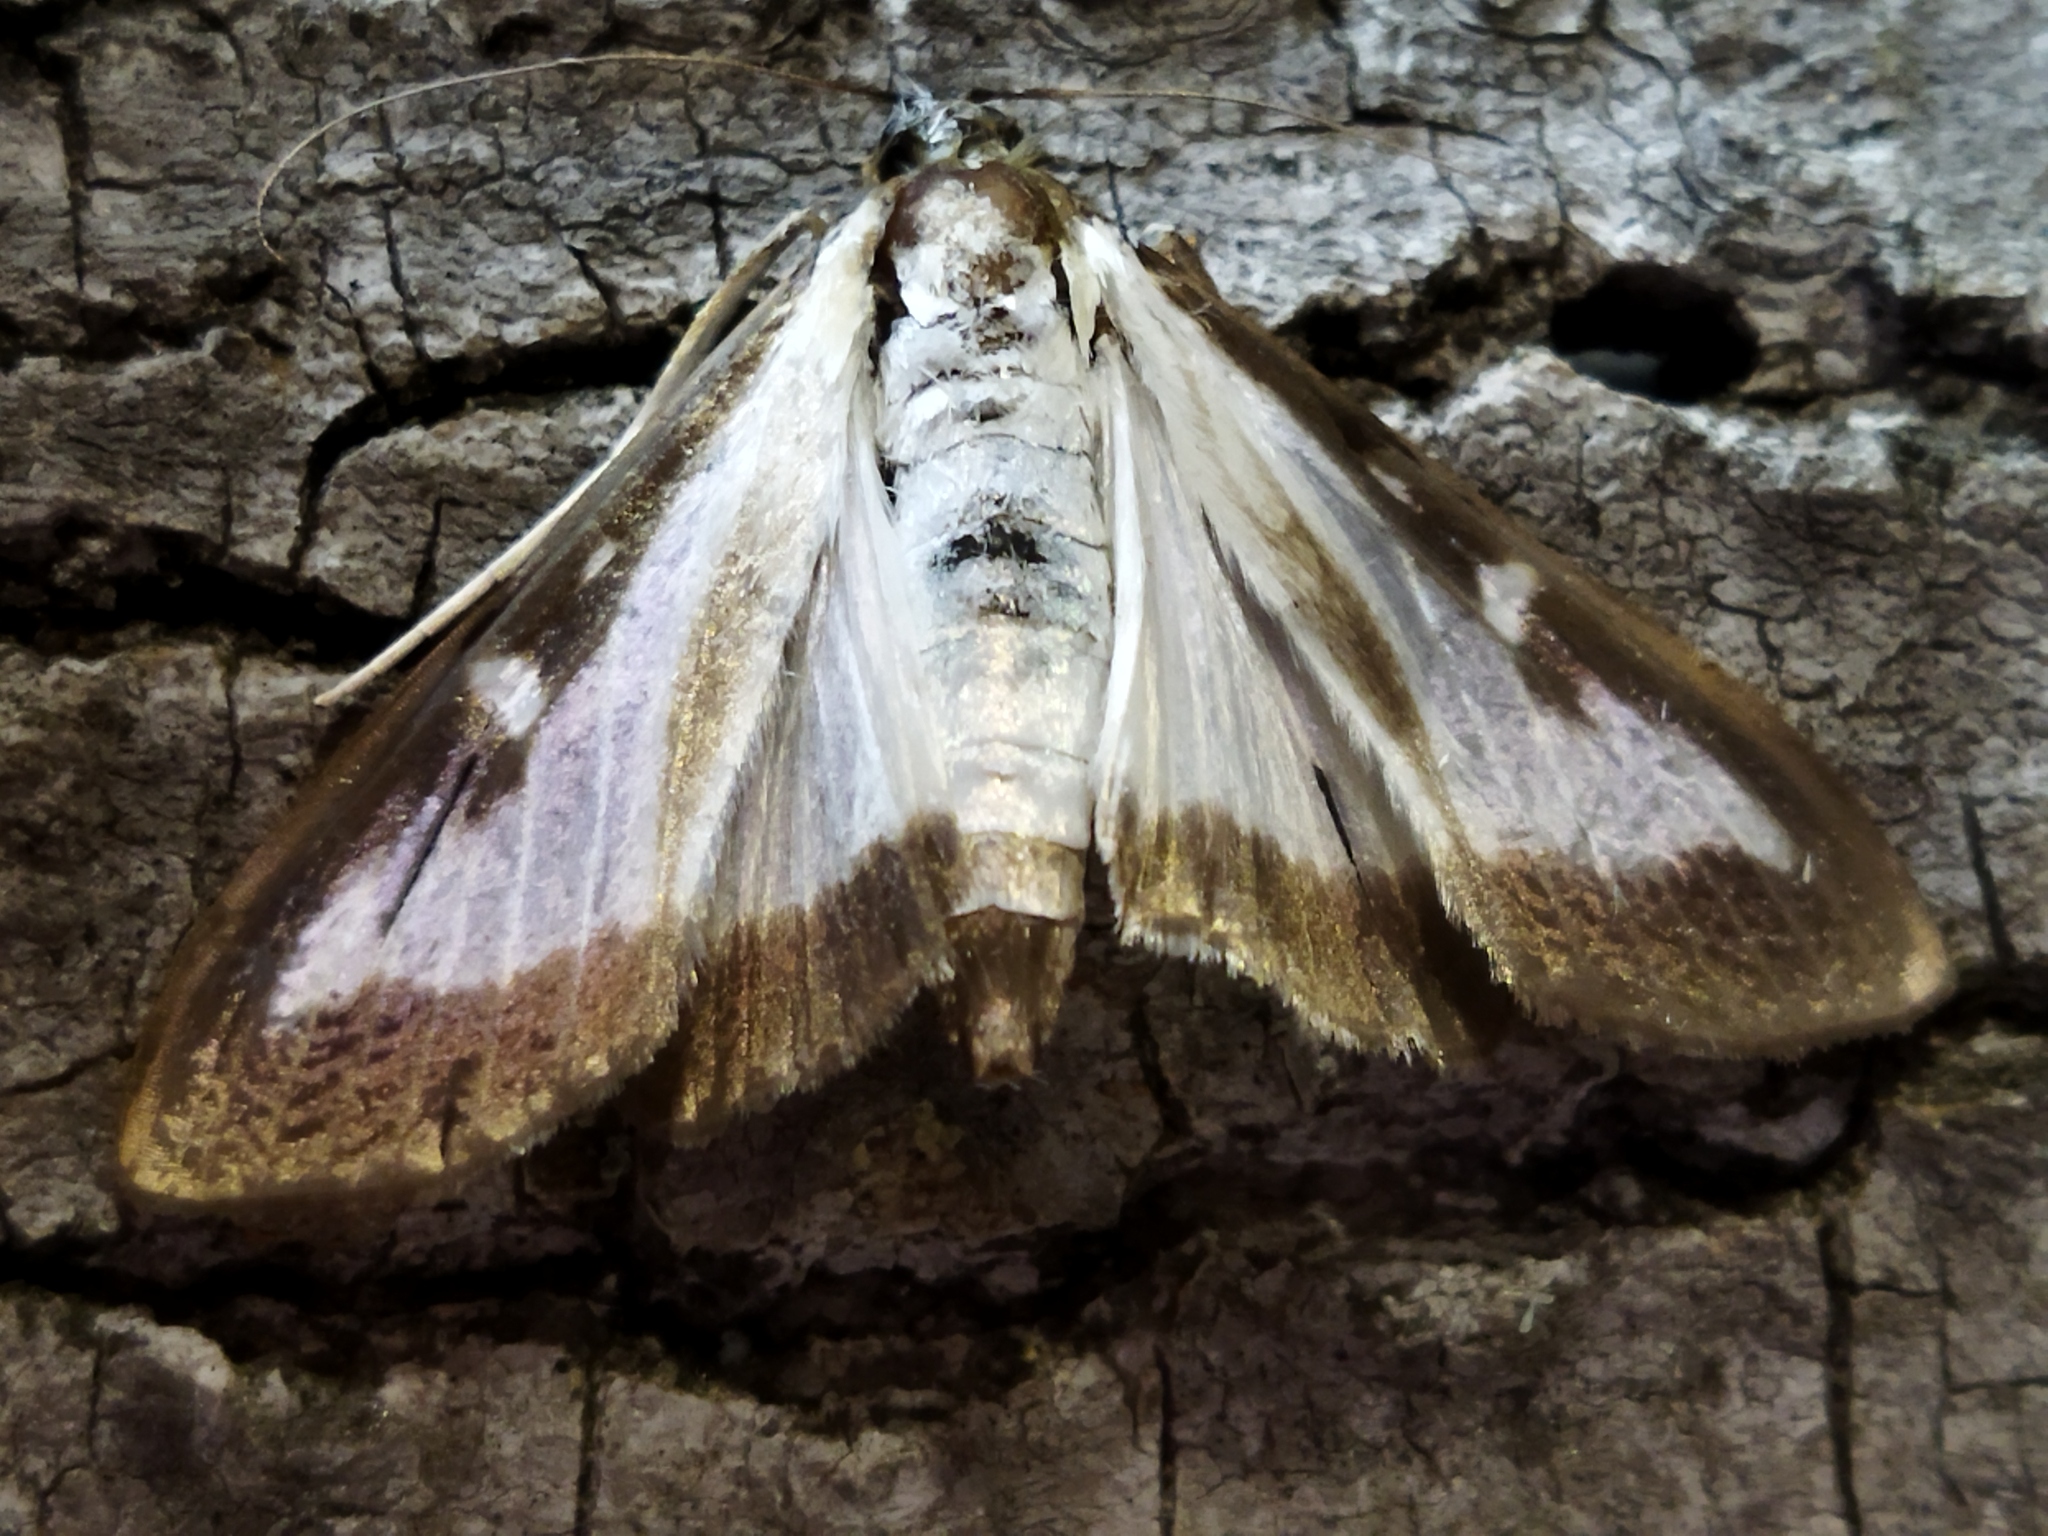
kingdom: Animalia
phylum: Arthropoda
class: Insecta
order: Lepidoptera
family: Crambidae
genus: Cydalima
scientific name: Cydalima perspectalis
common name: Box tree moth
